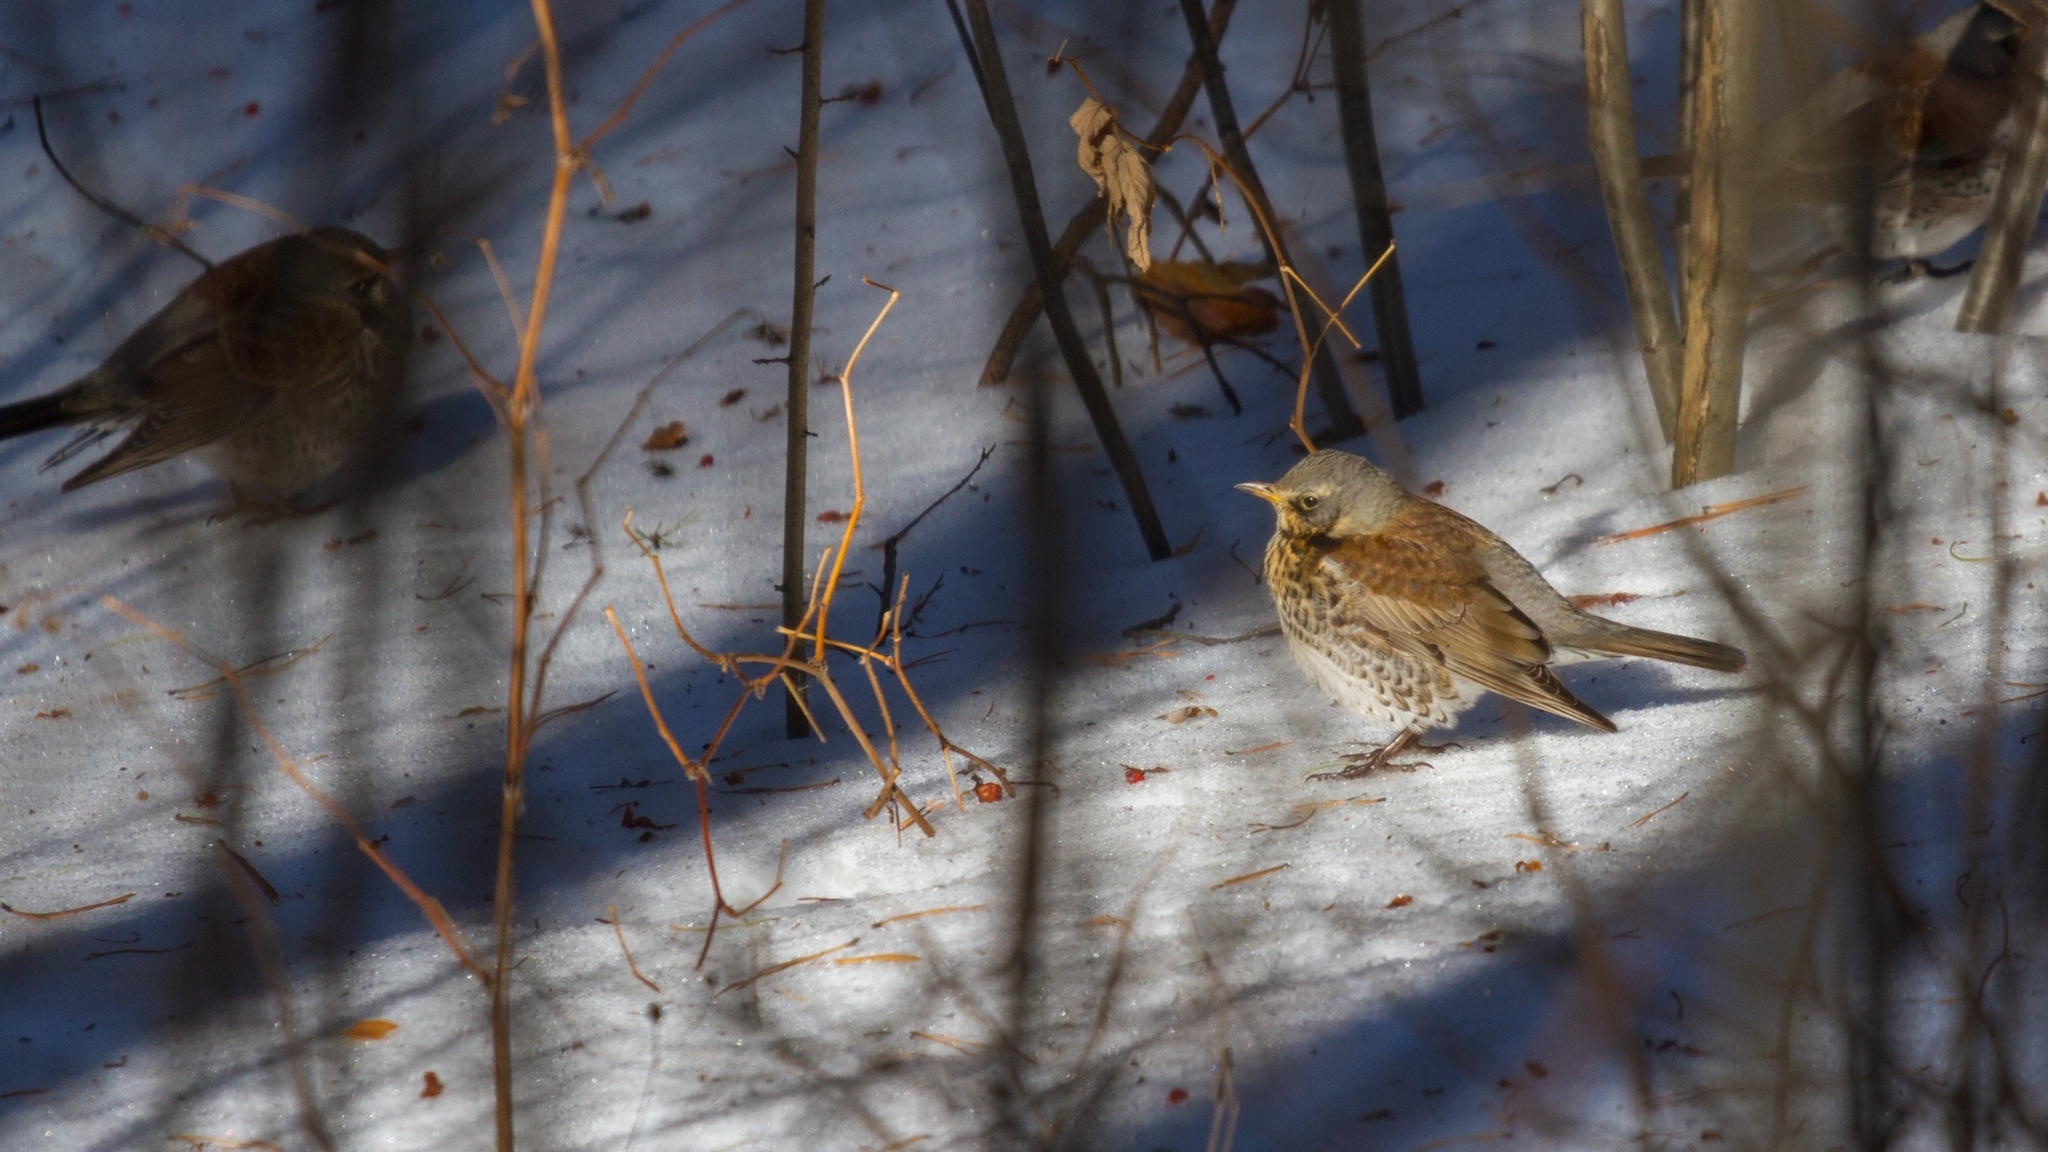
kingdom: Animalia
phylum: Chordata
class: Aves
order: Passeriformes
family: Turdidae
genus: Turdus
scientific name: Turdus pilaris
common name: Fieldfare
